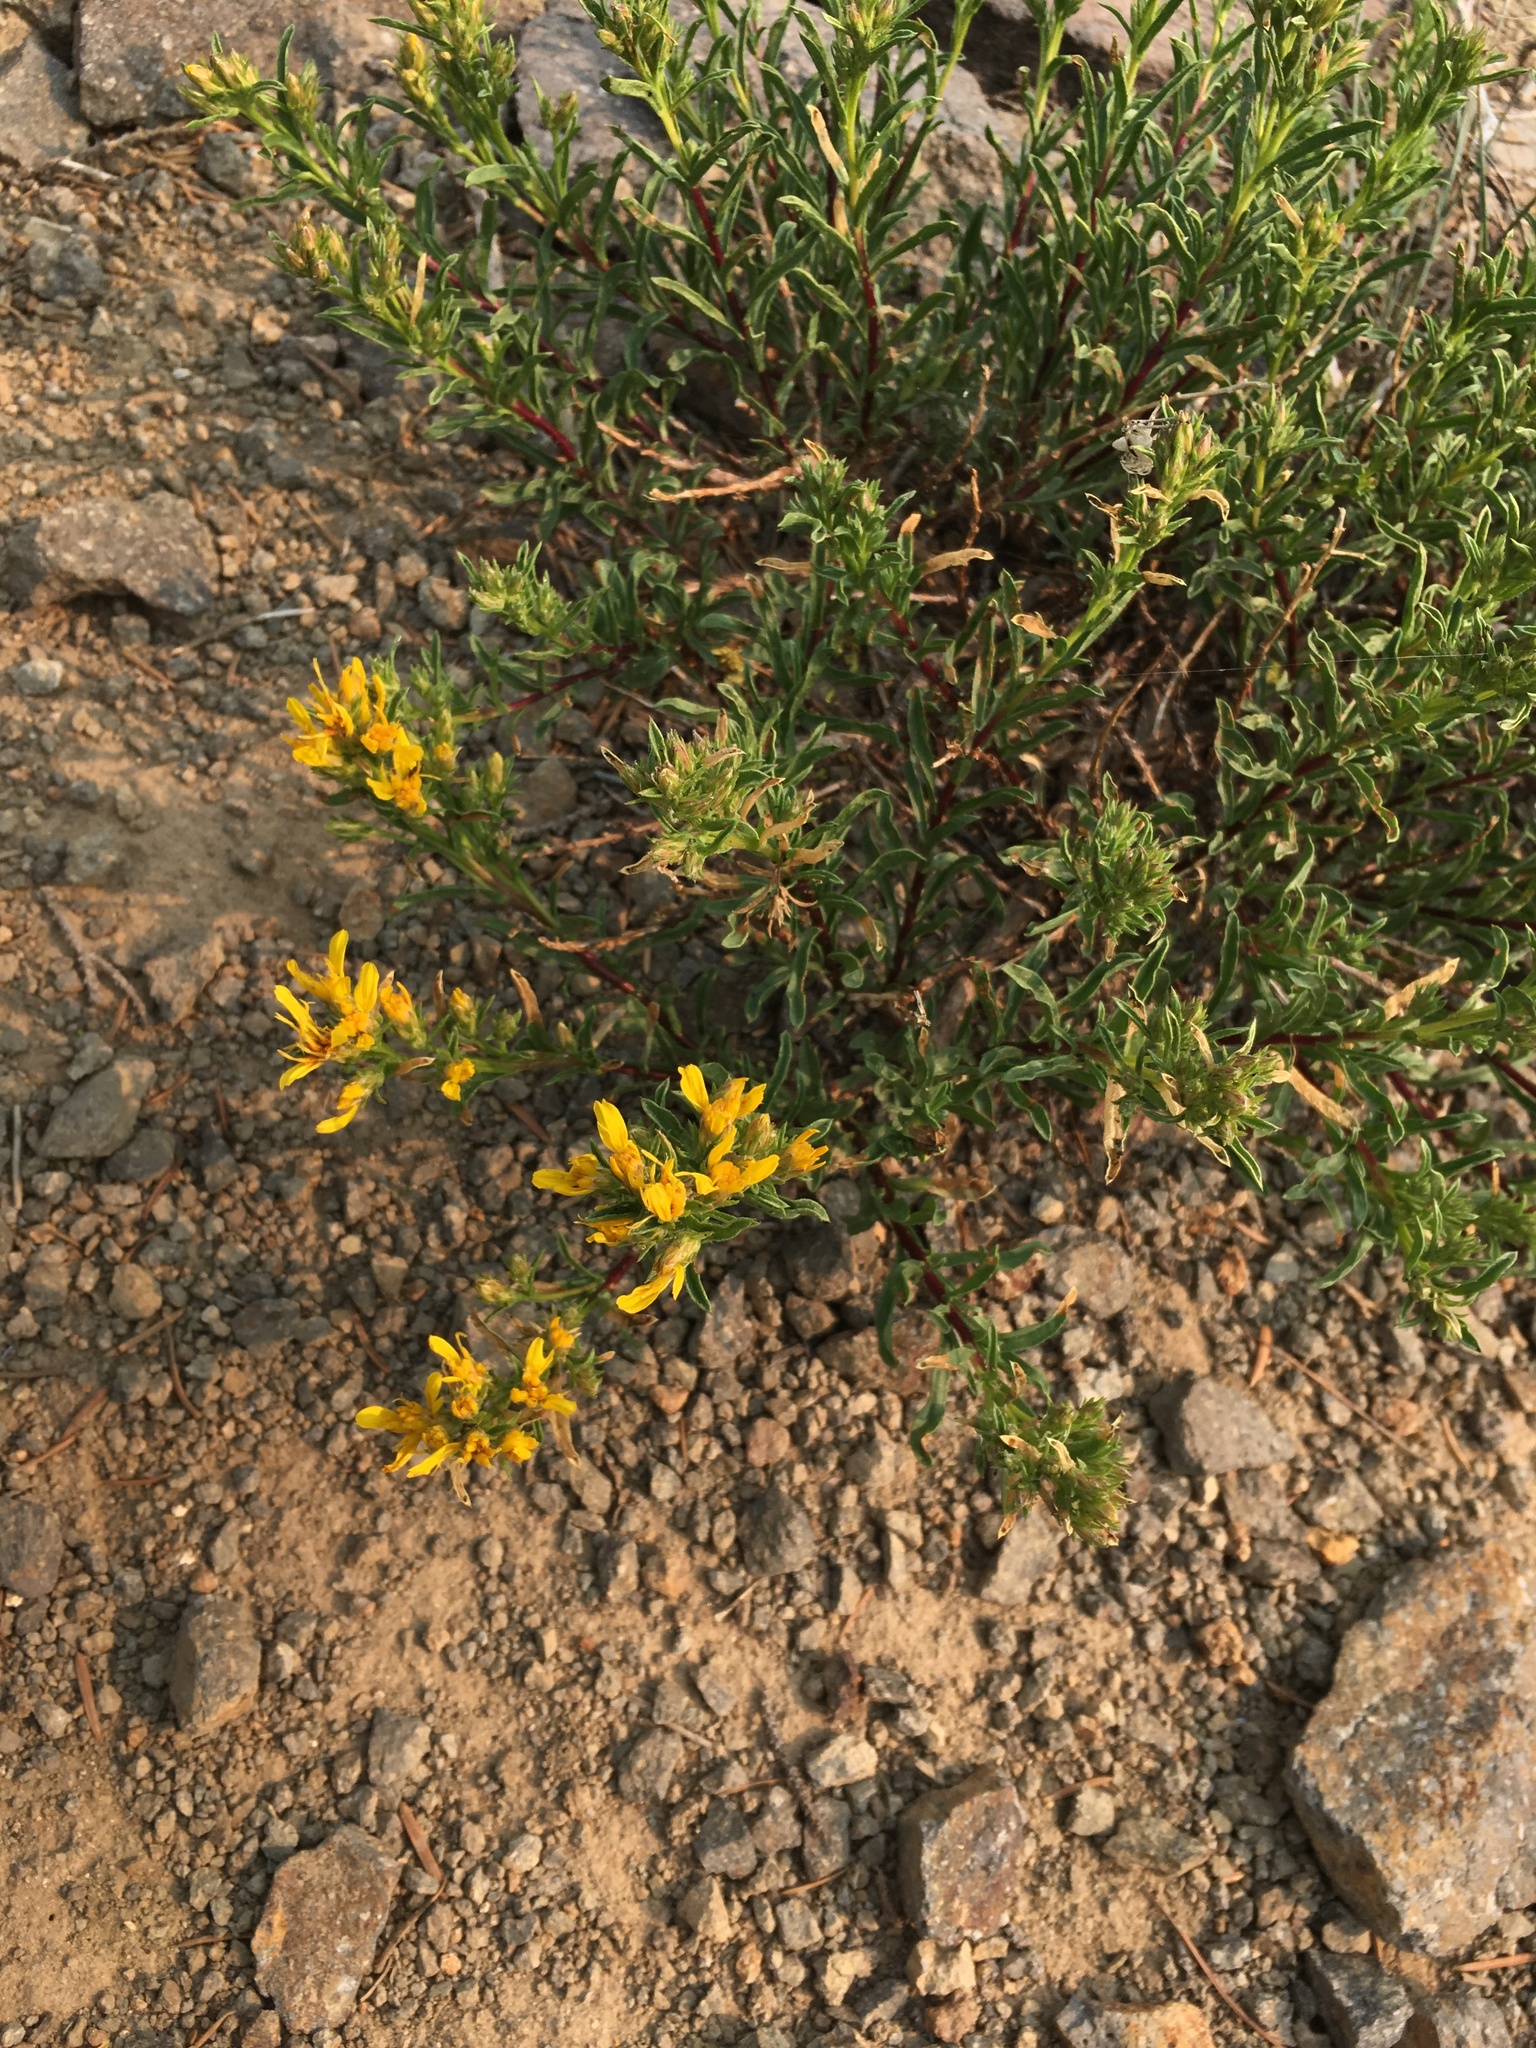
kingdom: Plantae
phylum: Tracheophyta
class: Magnoliopsida
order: Asterales
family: Asteraceae
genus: Ericameria
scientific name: Ericameria bloomeri
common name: Bloomer's goldenbush
